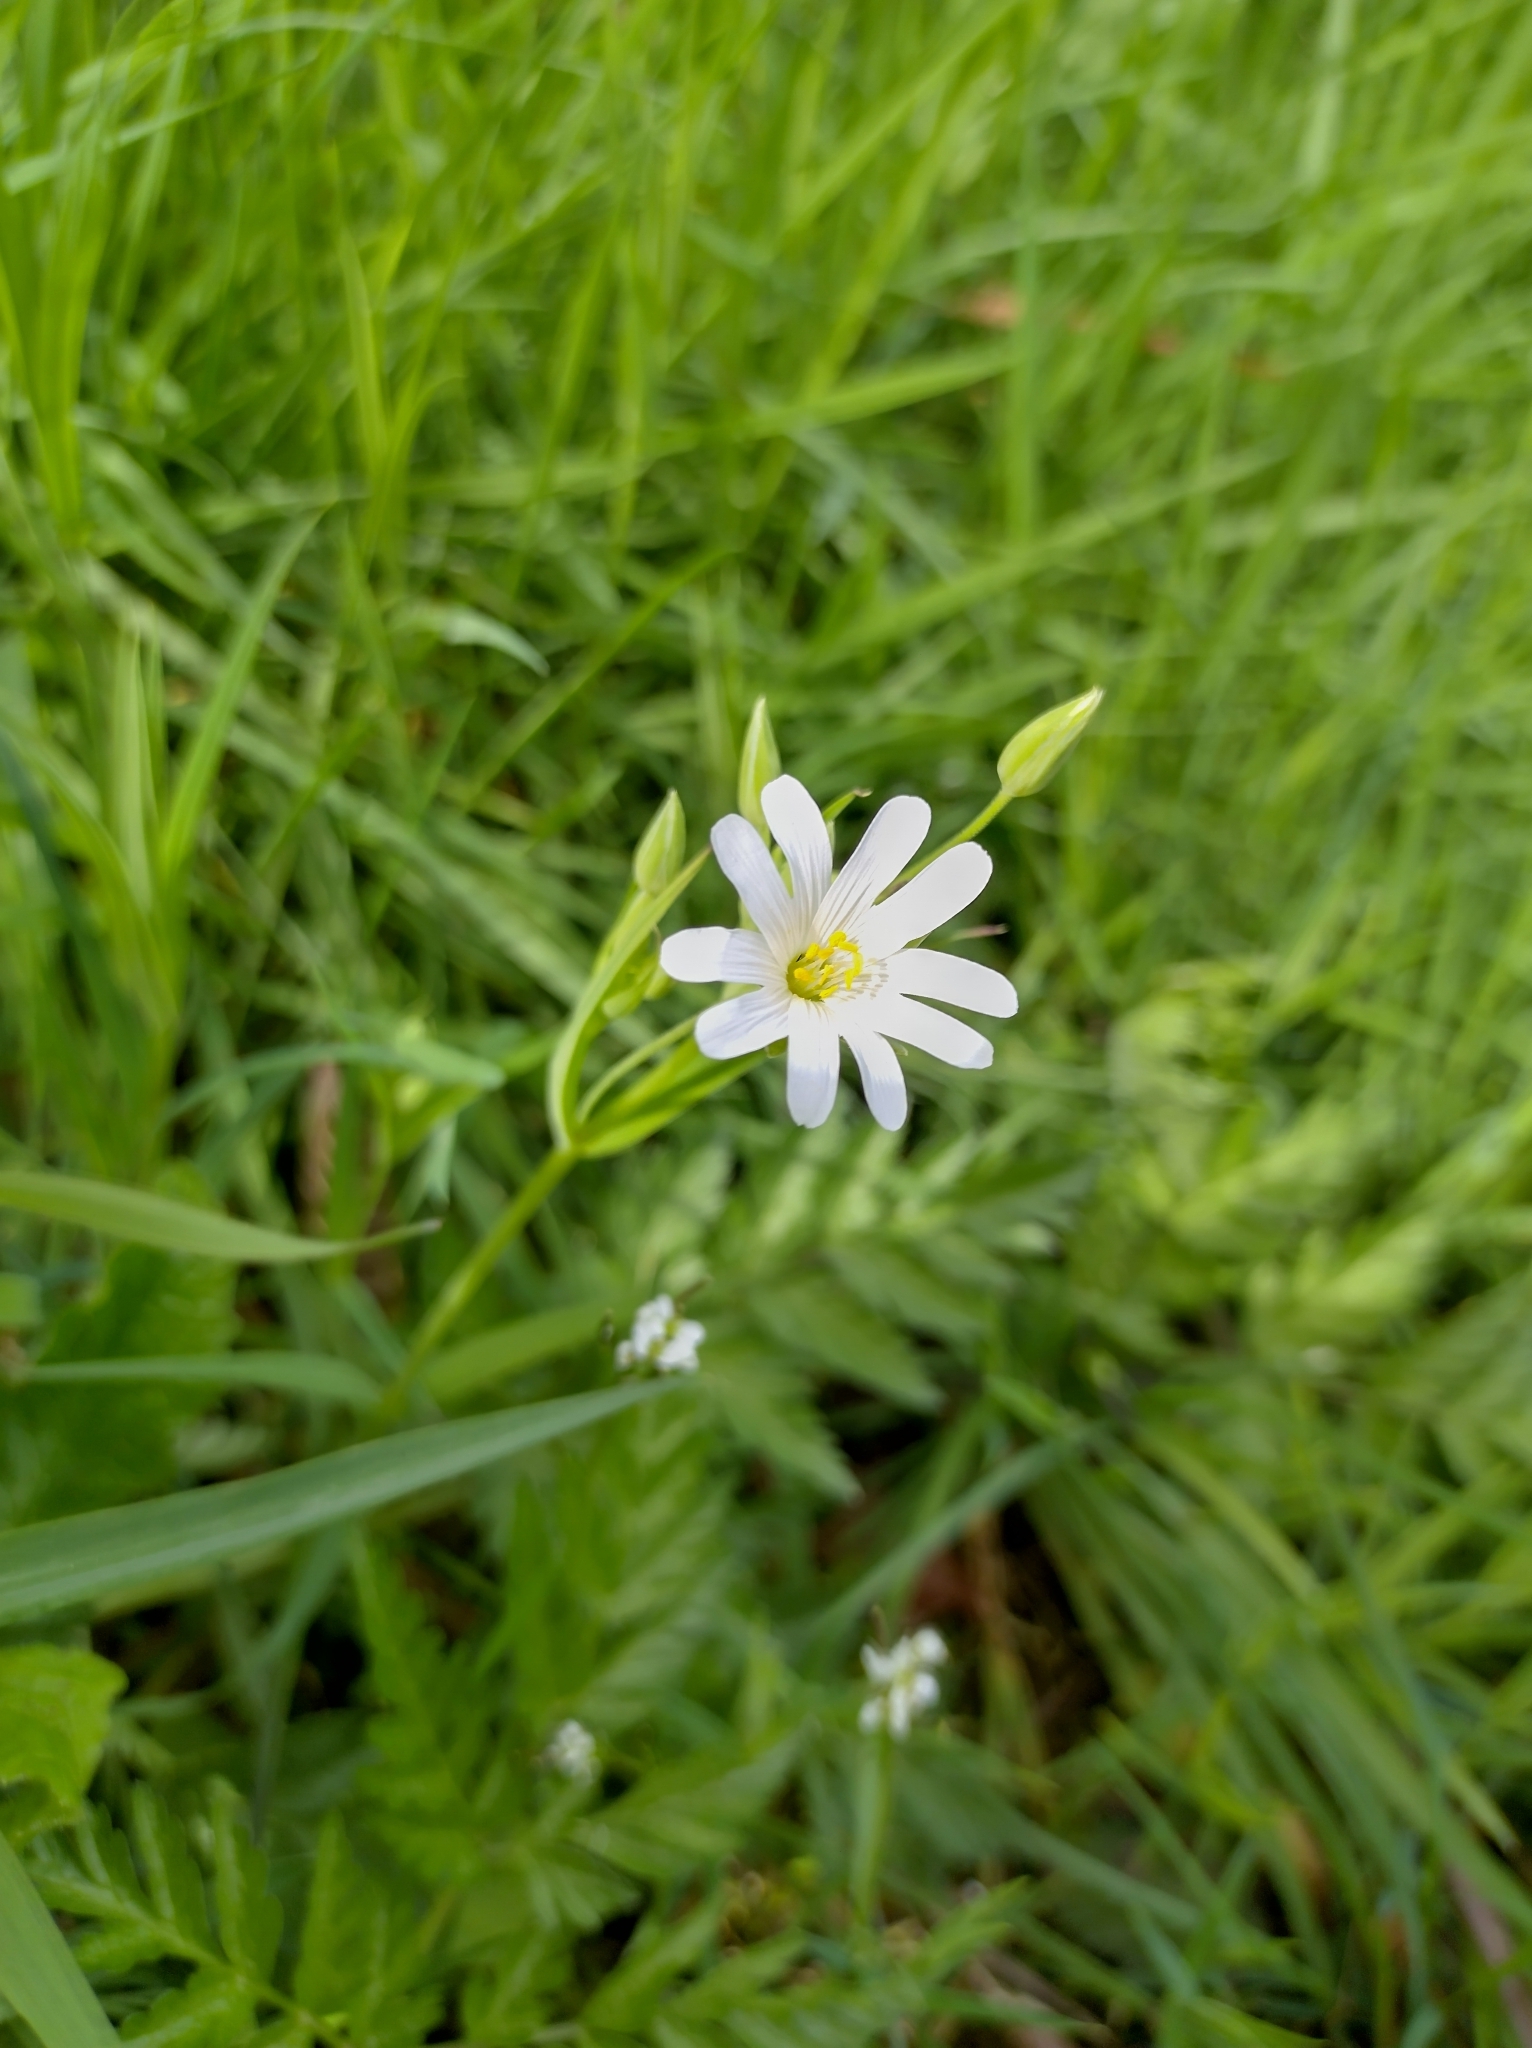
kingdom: Plantae
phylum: Tracheophyta
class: Magnoliopsida
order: Caryophyllales
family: Caryophyllaceae
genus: Rabelera
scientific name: Rabelera holostea
